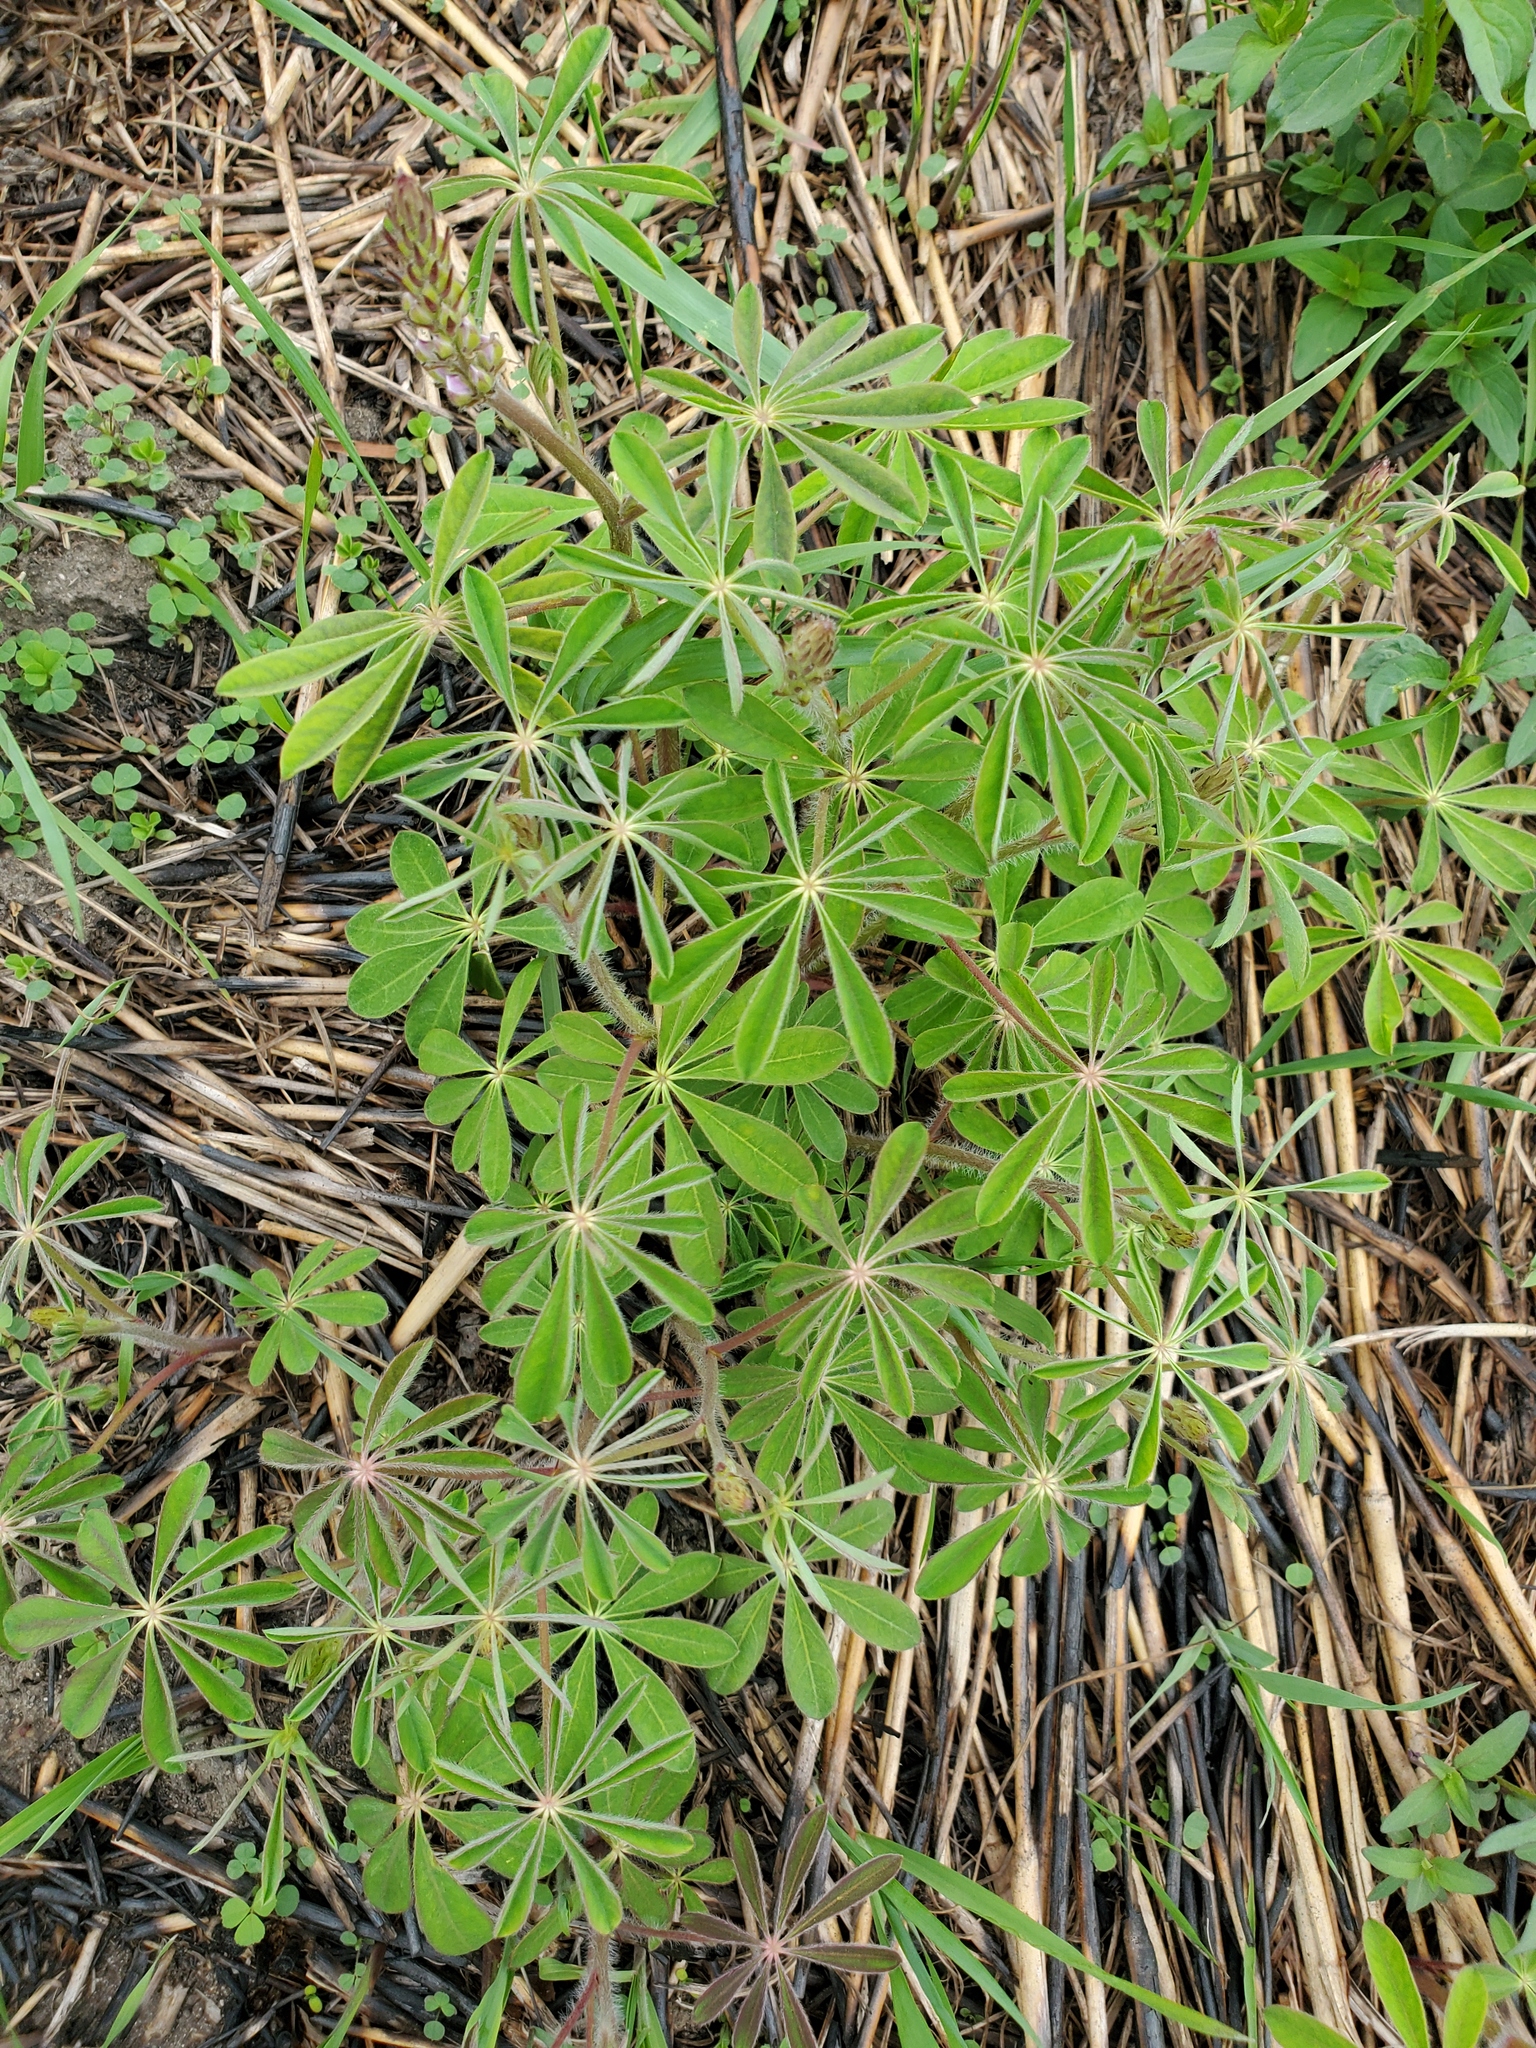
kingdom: Plantae
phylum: Tracheophyta
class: Magnoliopsida
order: Fabales
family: Fabaceae
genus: Lupinus
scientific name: Lupinus perennis
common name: Sundial lupine
